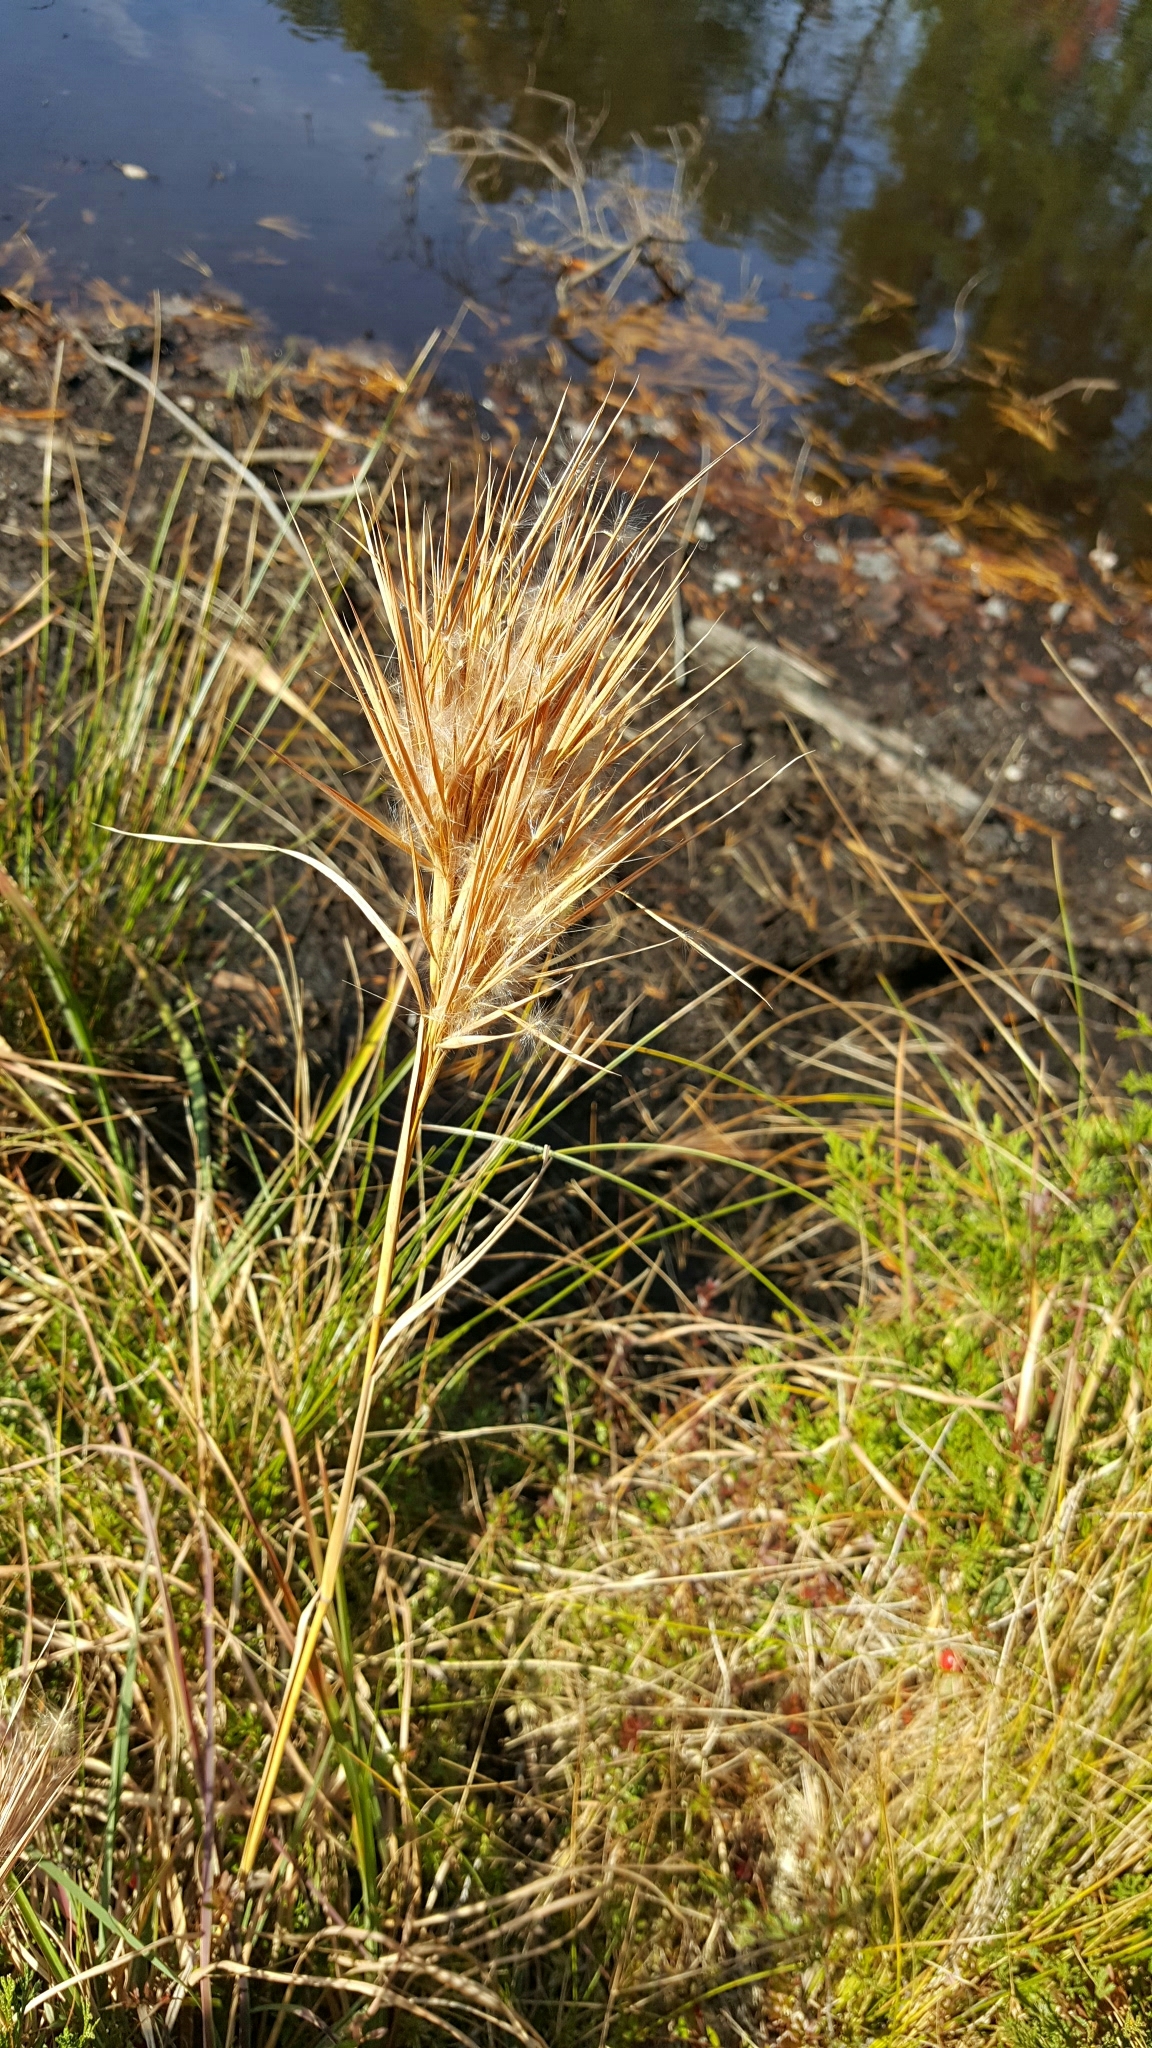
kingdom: Plantae
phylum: Tracheophyta
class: Liliopsida
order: Poales
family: Poaceae
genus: Andropogon
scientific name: Andropogon glomeratus
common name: Bushy beard grass
